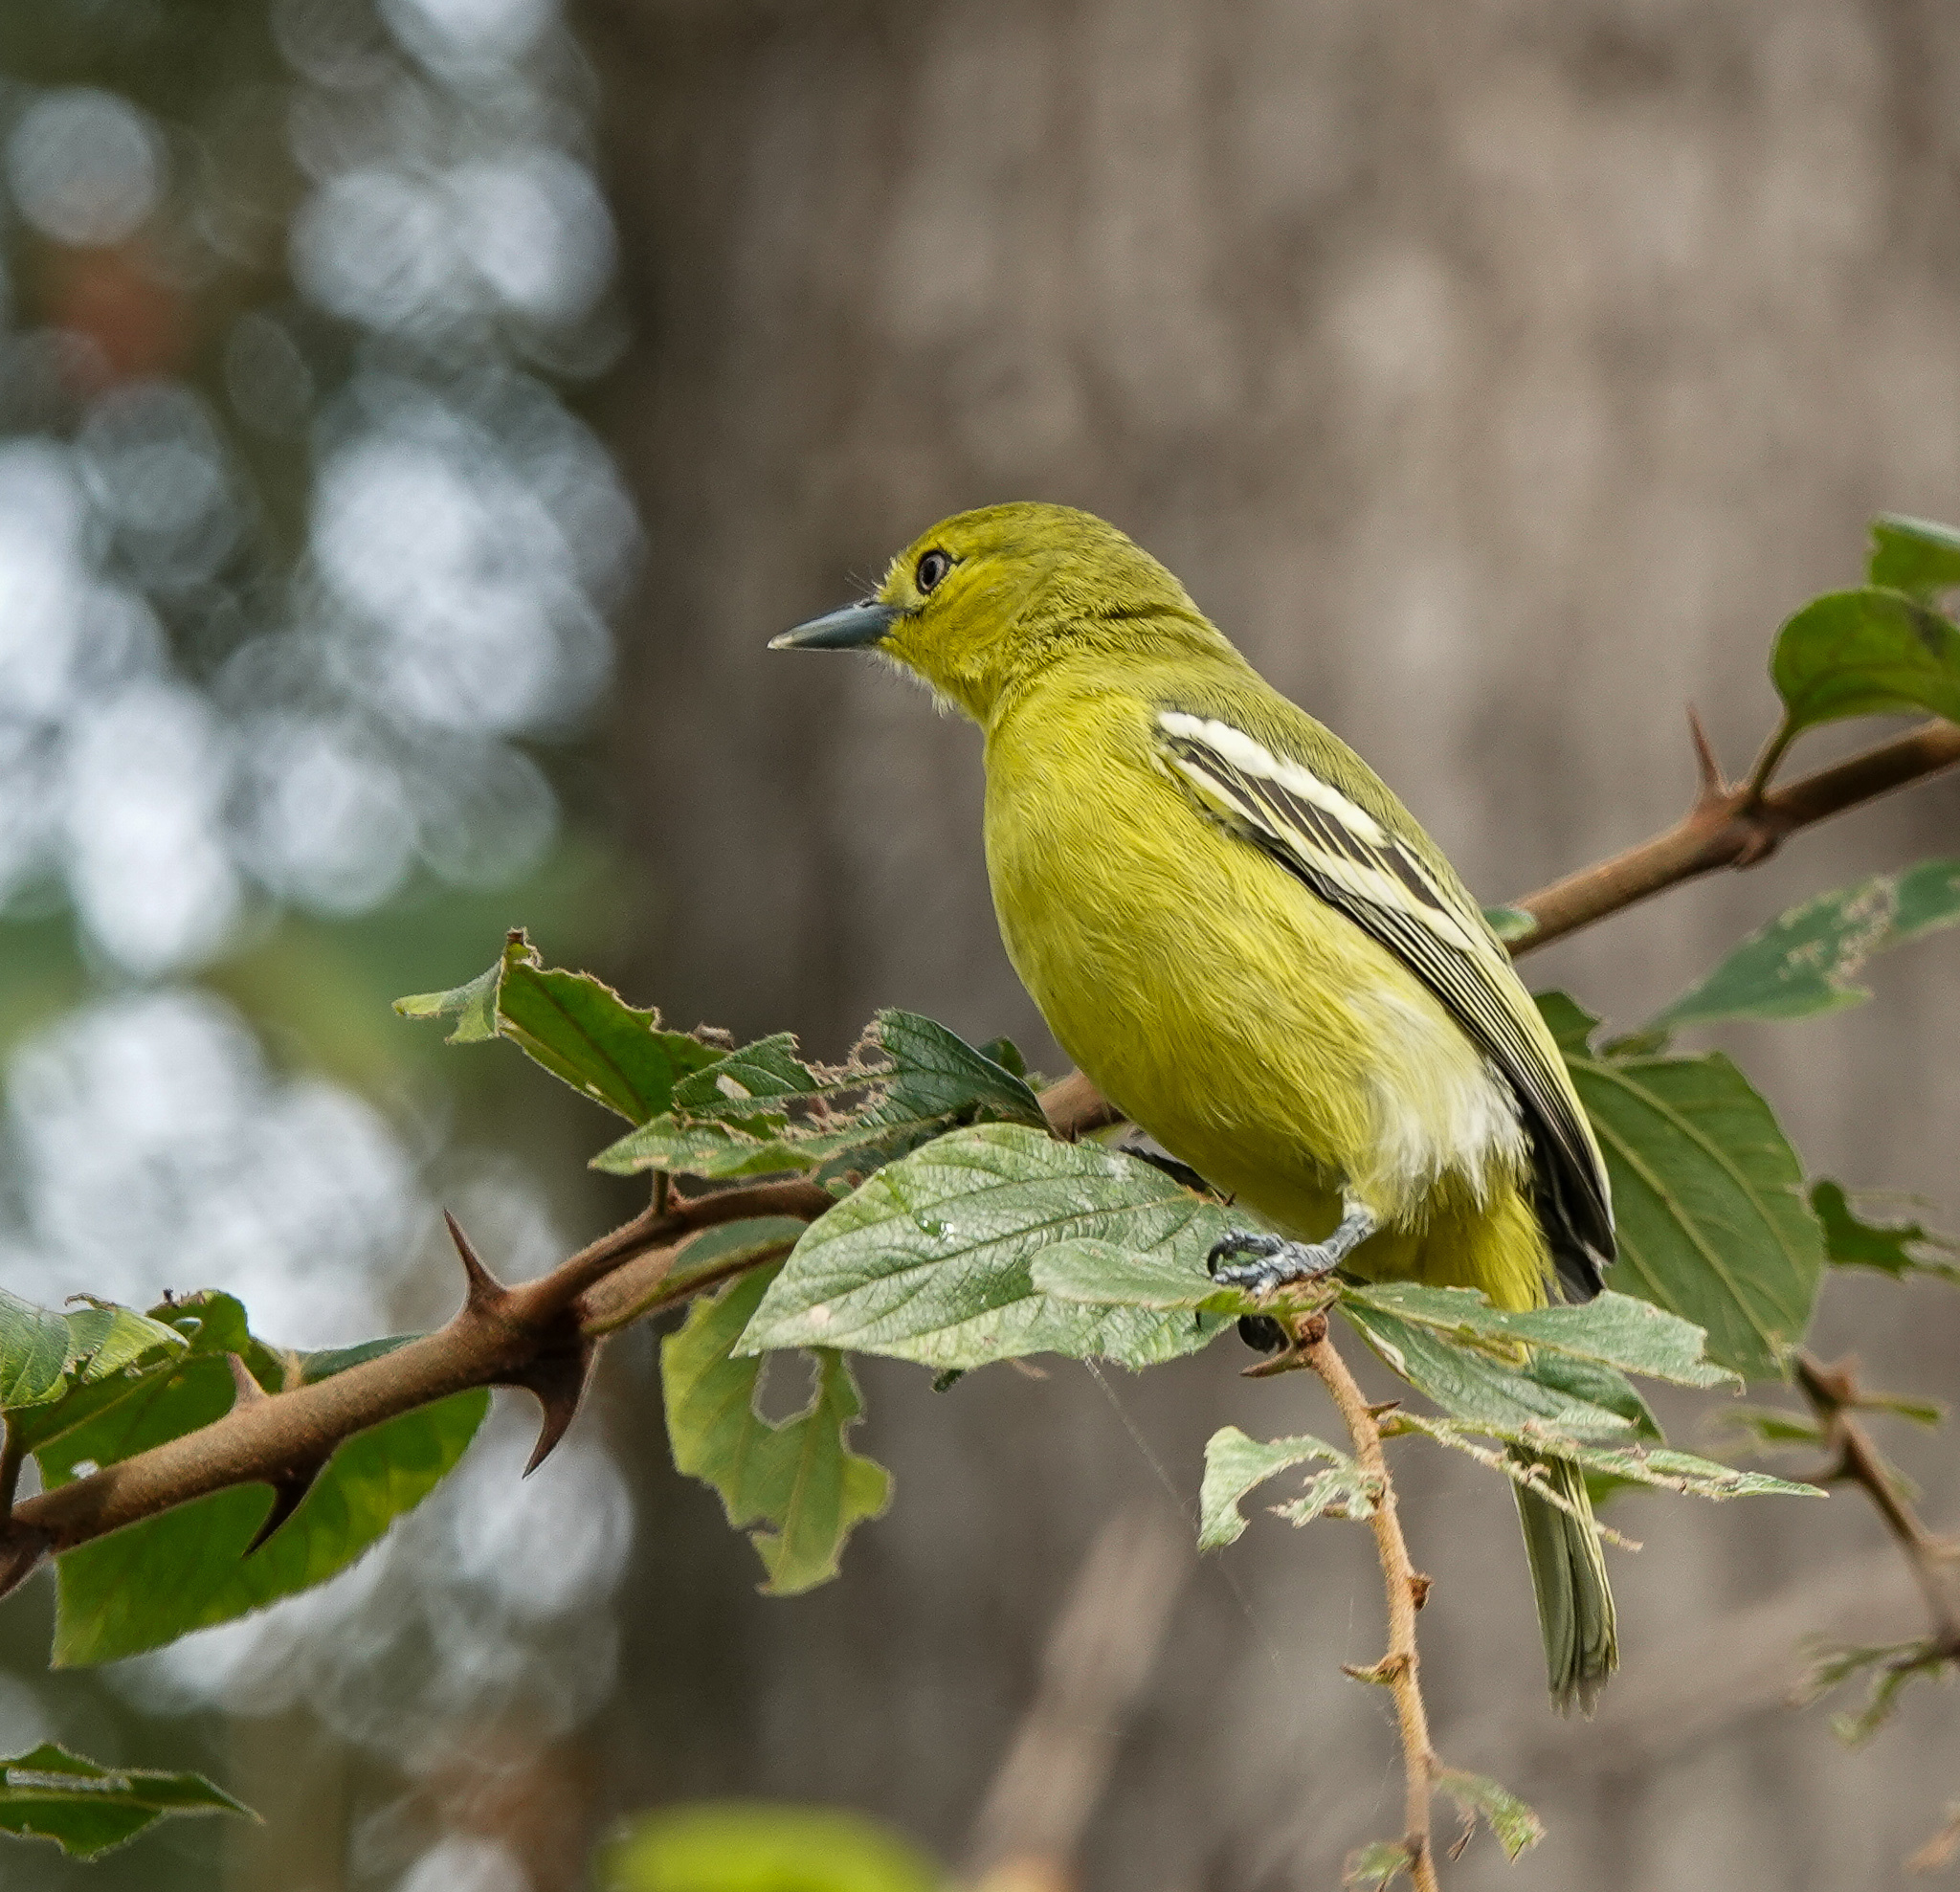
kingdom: Animalia
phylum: Chordata
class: Aves
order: Passeriformes
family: Aegithinidae
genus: Aegithina
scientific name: Aegithina tiphia
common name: Common iora
